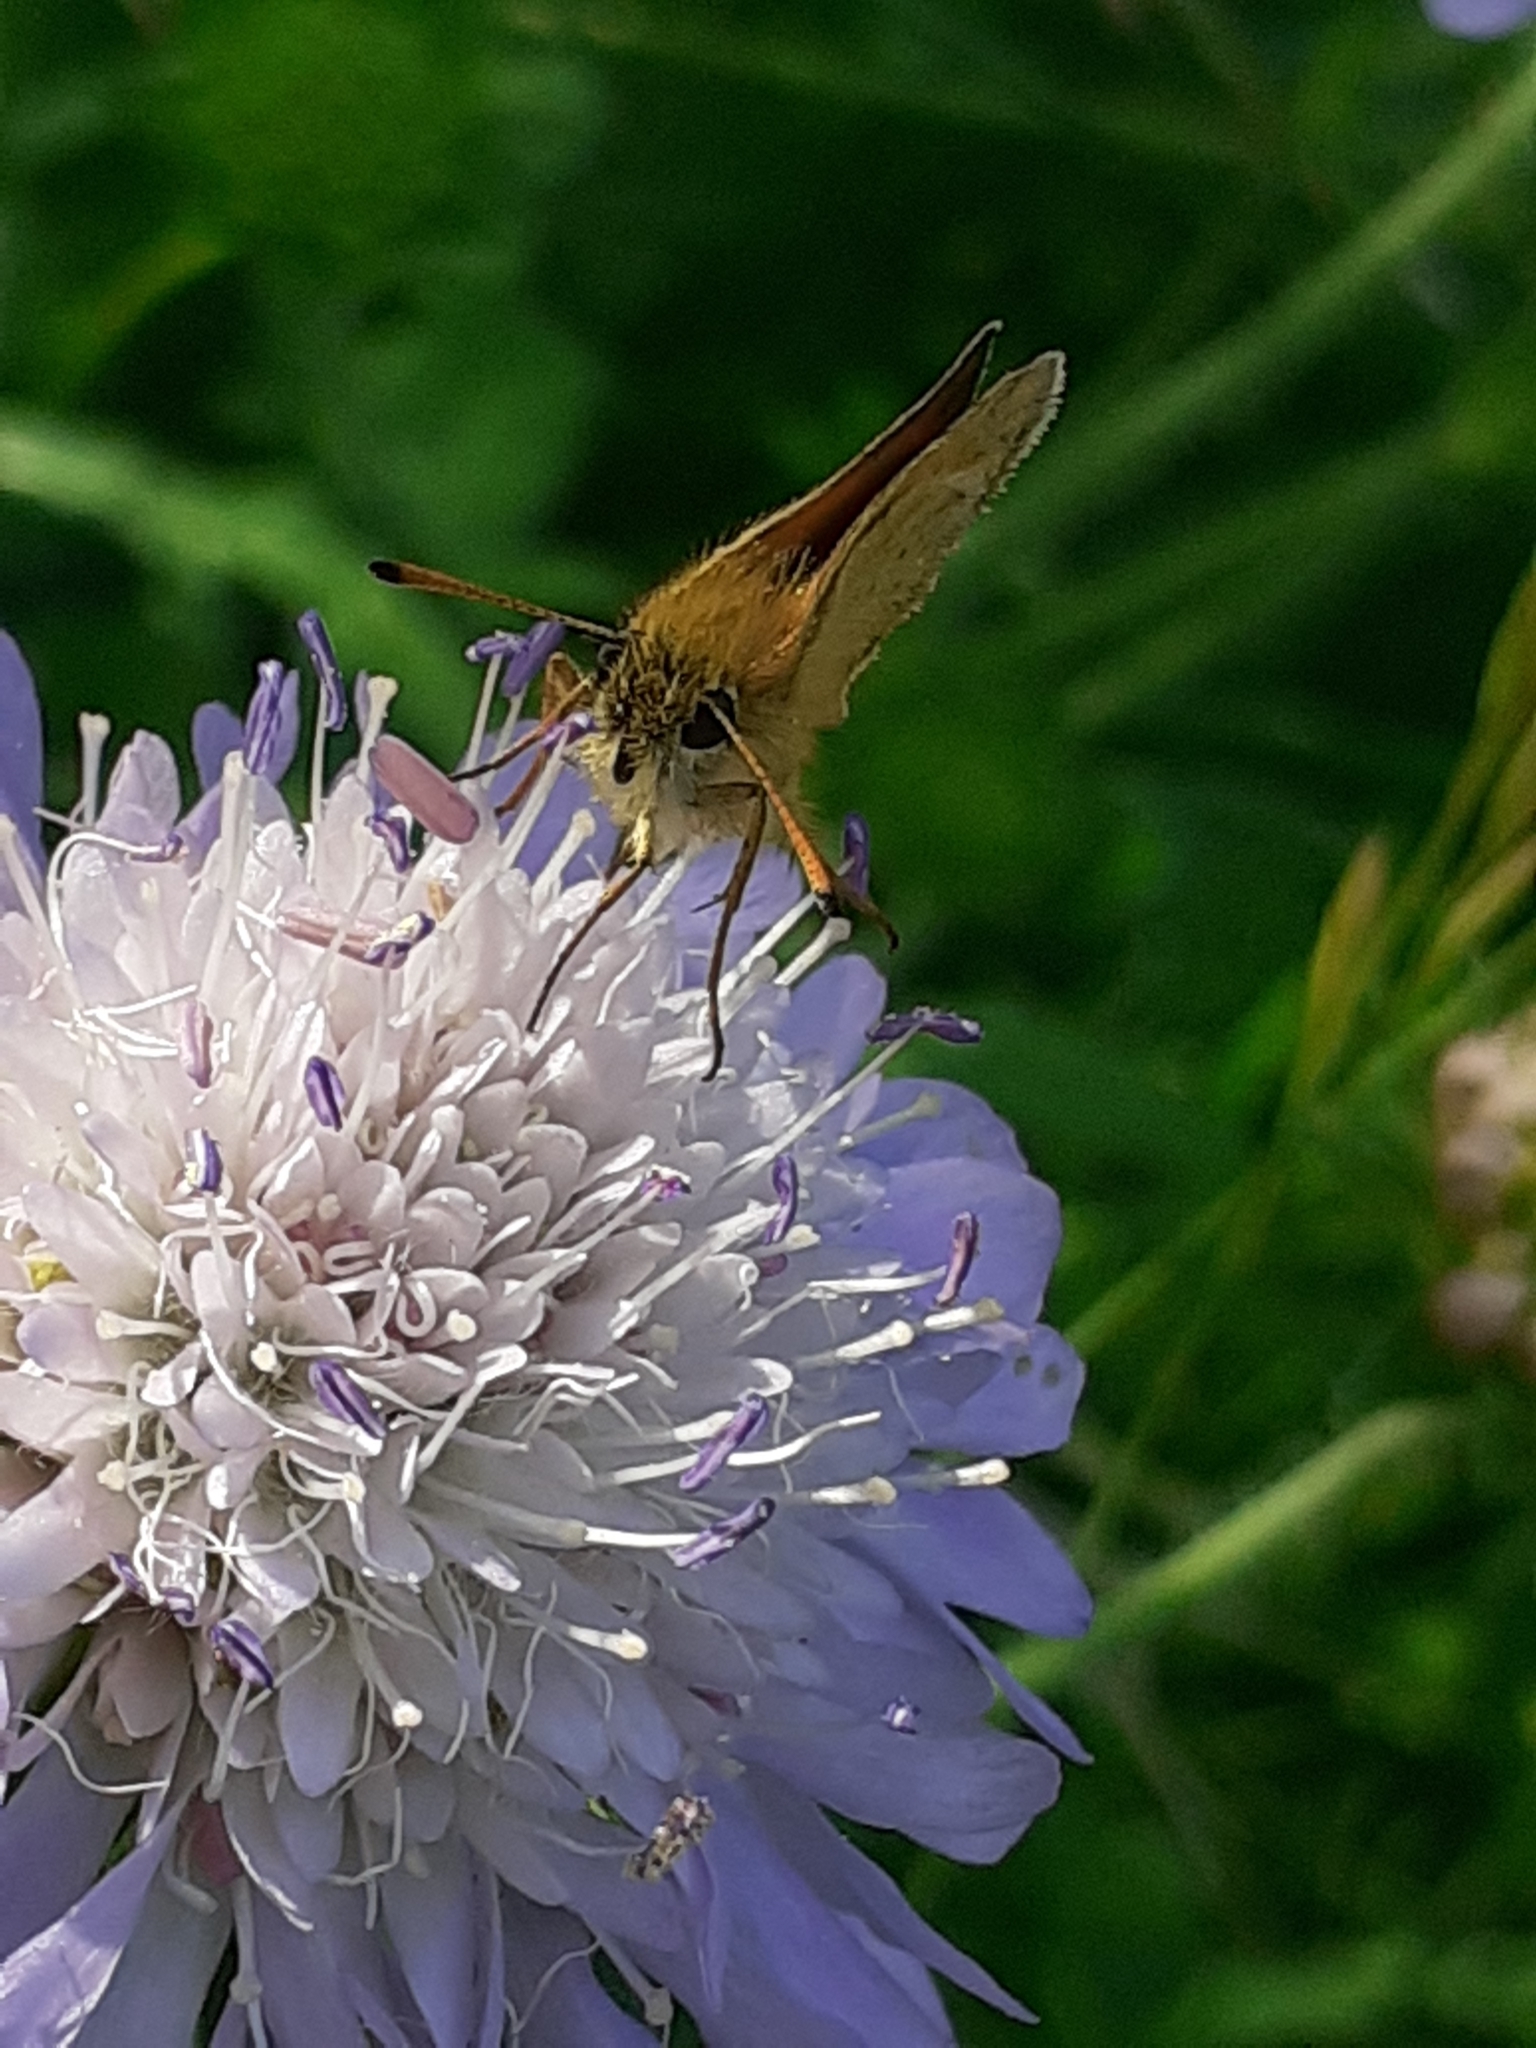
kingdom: Animalia
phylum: Arthropoda
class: Insecta
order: Lepidoptera
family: Hesperiidae
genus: Thymelicus
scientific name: Thymelicus lineola
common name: Essex skipper
